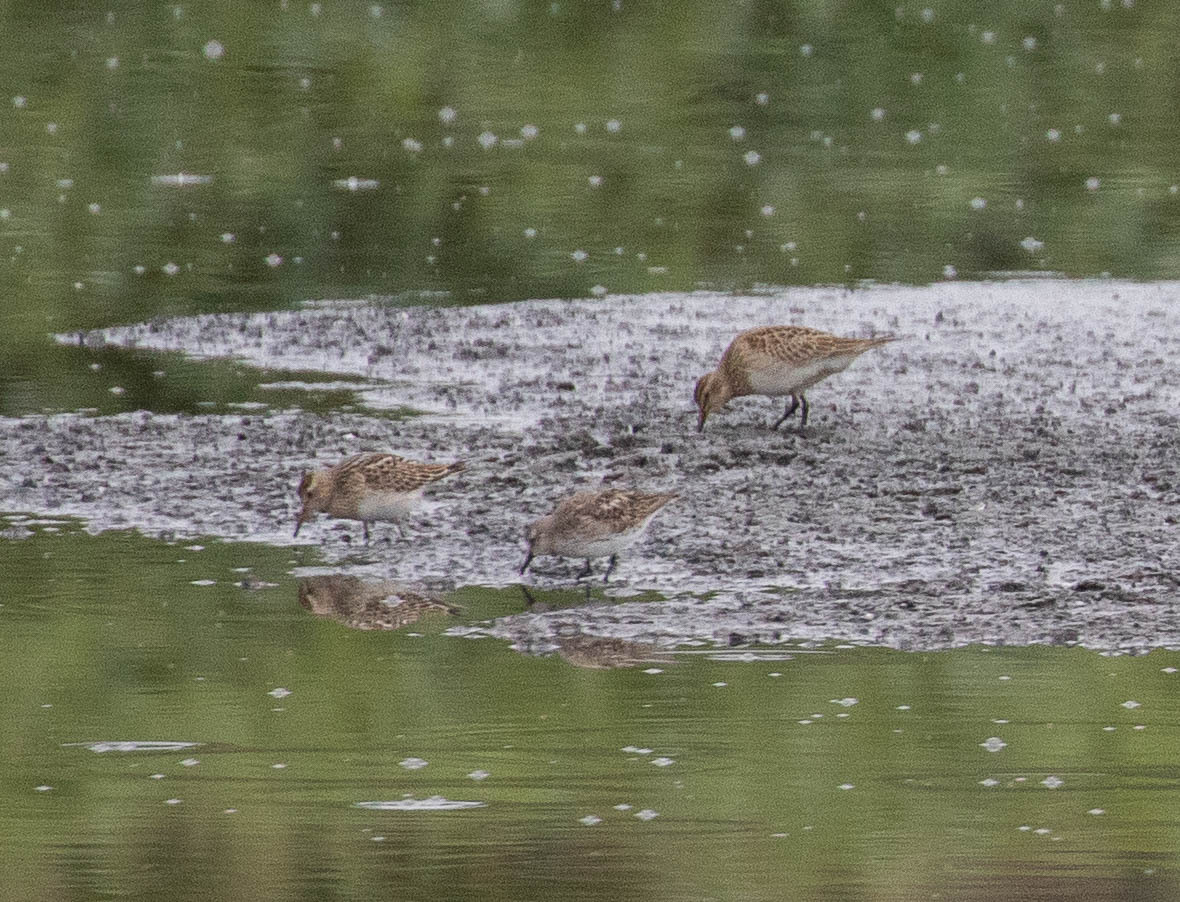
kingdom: Animalia
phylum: Chordata
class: Aves
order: Charadriiformes
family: Scolopacidae
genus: Calidris
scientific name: Calidris fuscicollis
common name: White-rumped sandpiper
